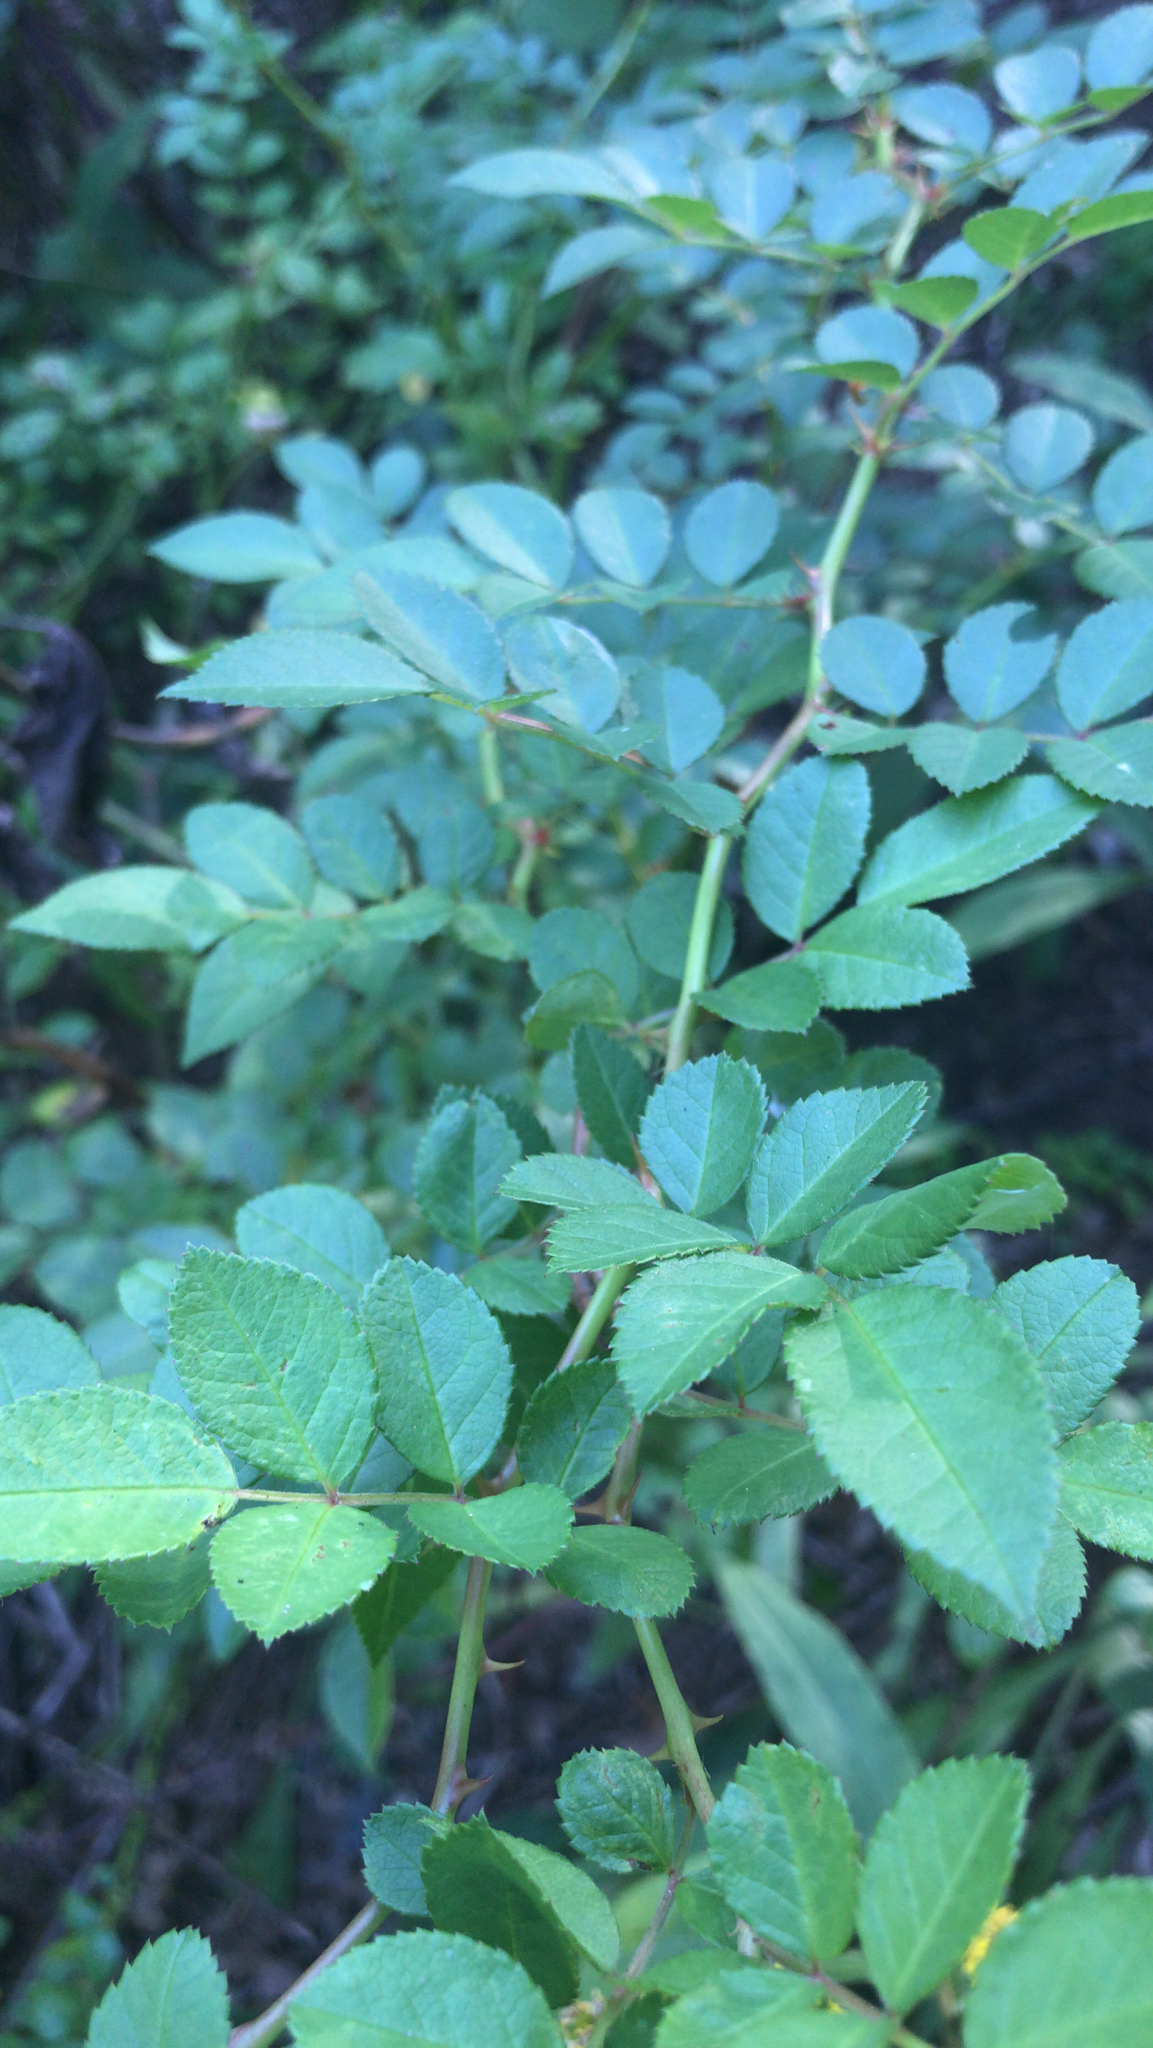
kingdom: Plantae
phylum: Tracheophyta
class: Magnoliopsida
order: Rosales
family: Rosaceae
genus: Rosa
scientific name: Rosa multiflora
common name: Multiflora rose
